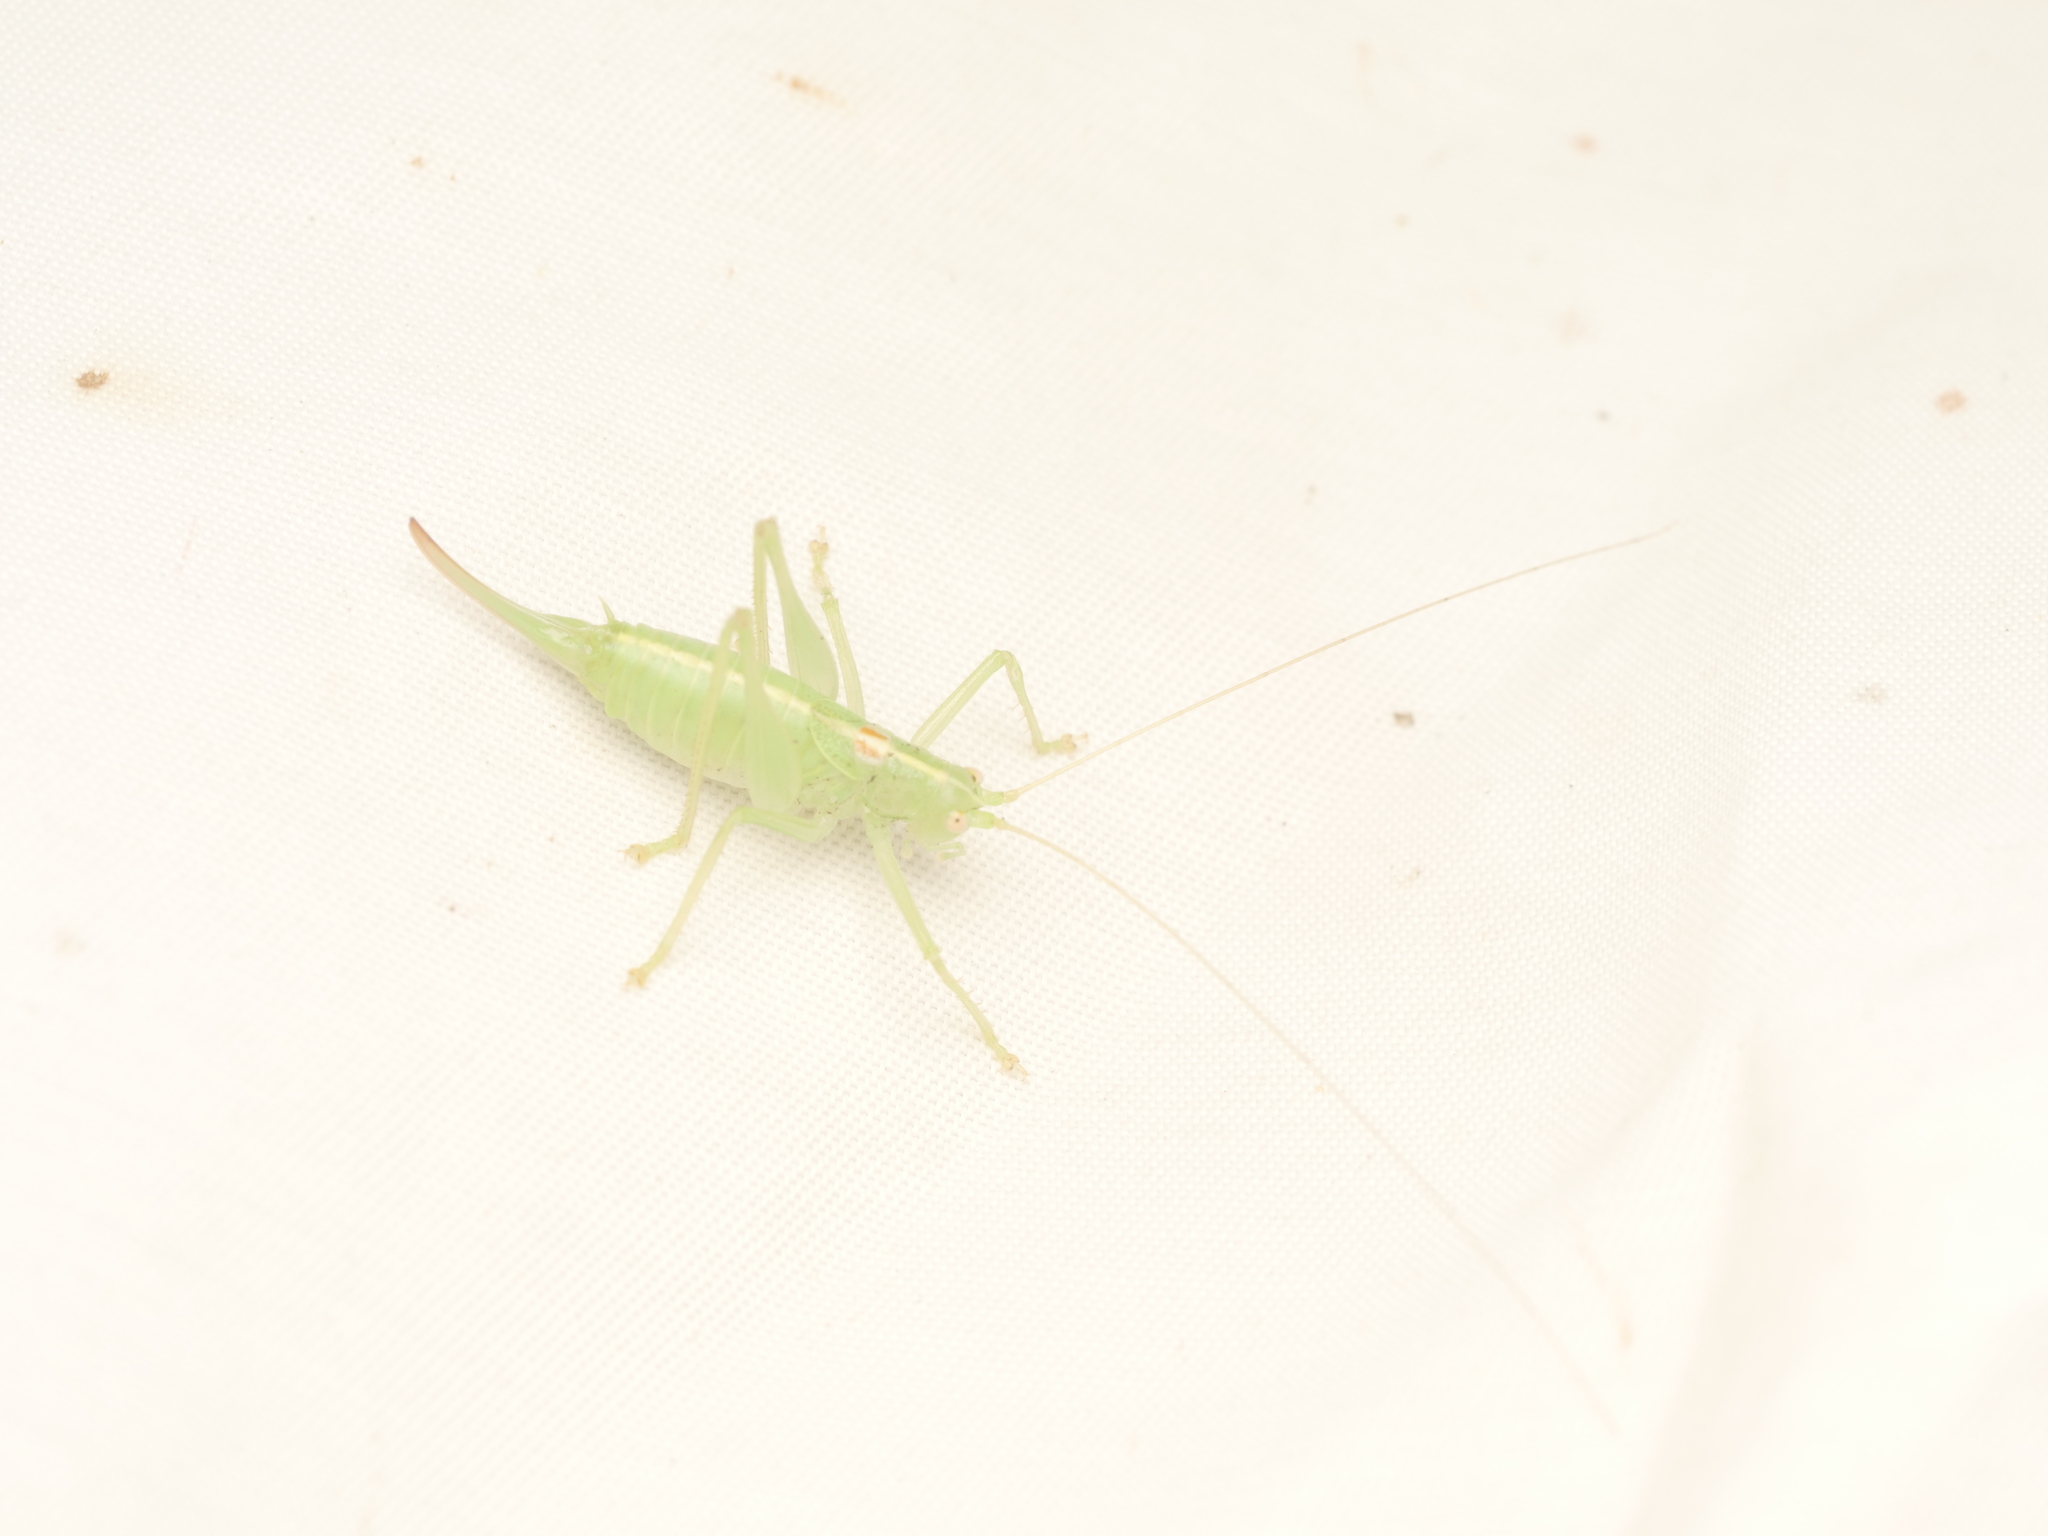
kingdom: Animalia
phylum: Arthropoda
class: Insecta
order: Orthoptera
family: Tettigoniidae
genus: Meconema
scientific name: Meconema meridionale
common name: Southern oak bush-cricket
